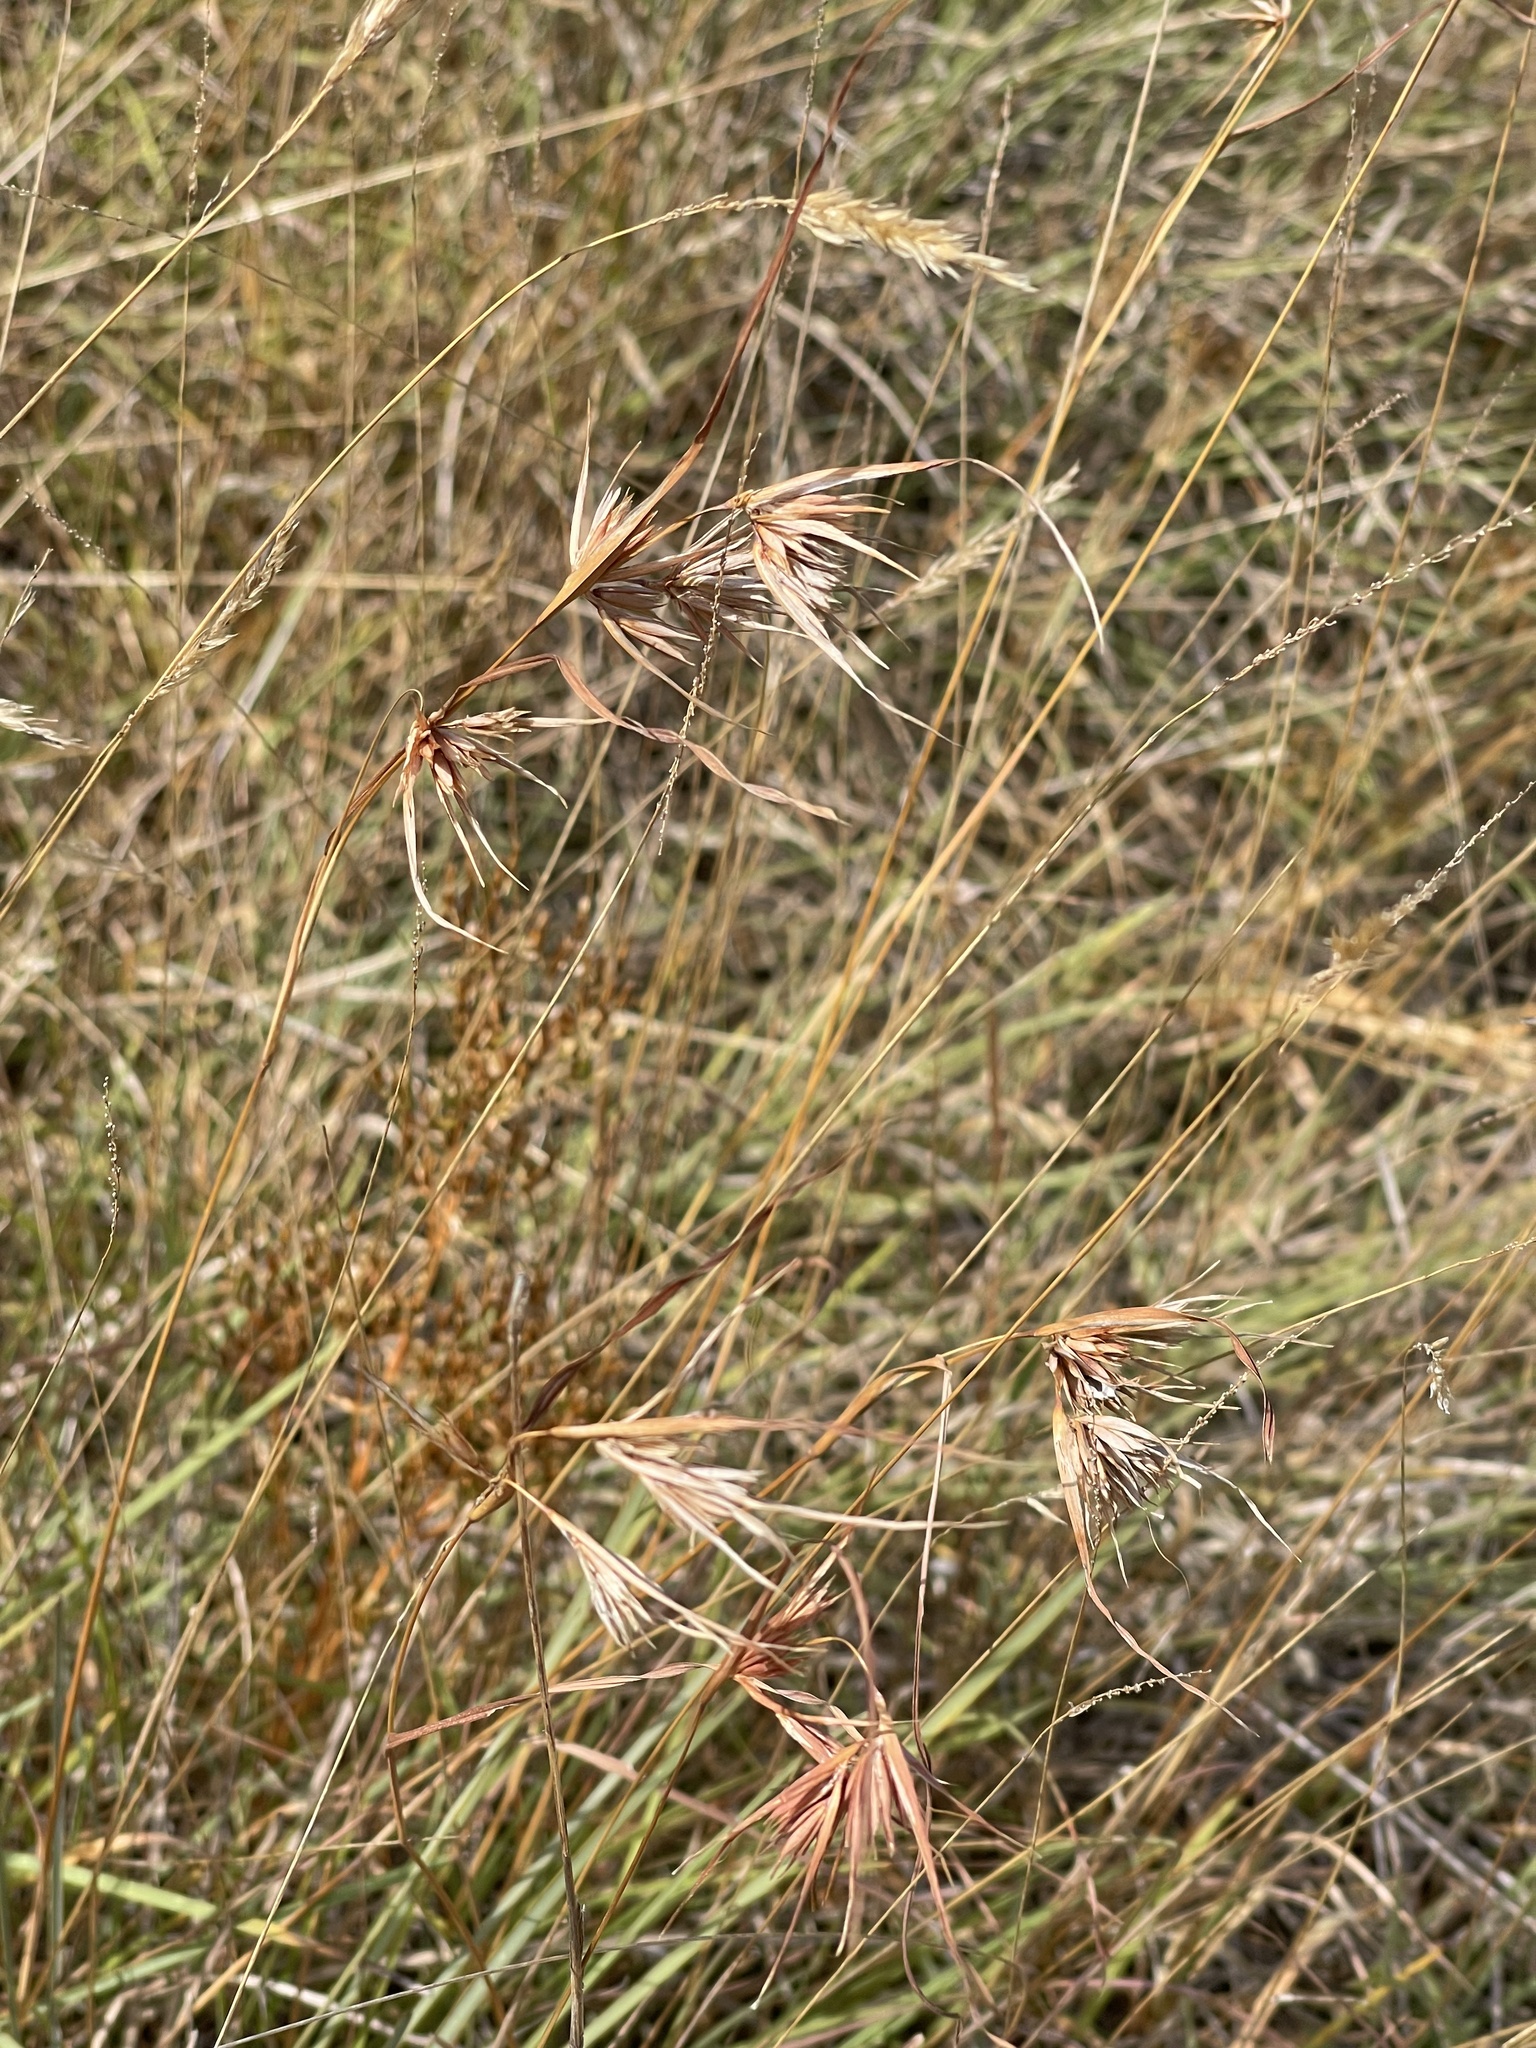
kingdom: Plantae
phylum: Tracheophyta
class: Liliopsida
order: Poales
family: Poaceae
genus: Themeda
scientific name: Themeda triandra
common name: Kangaroo grass
